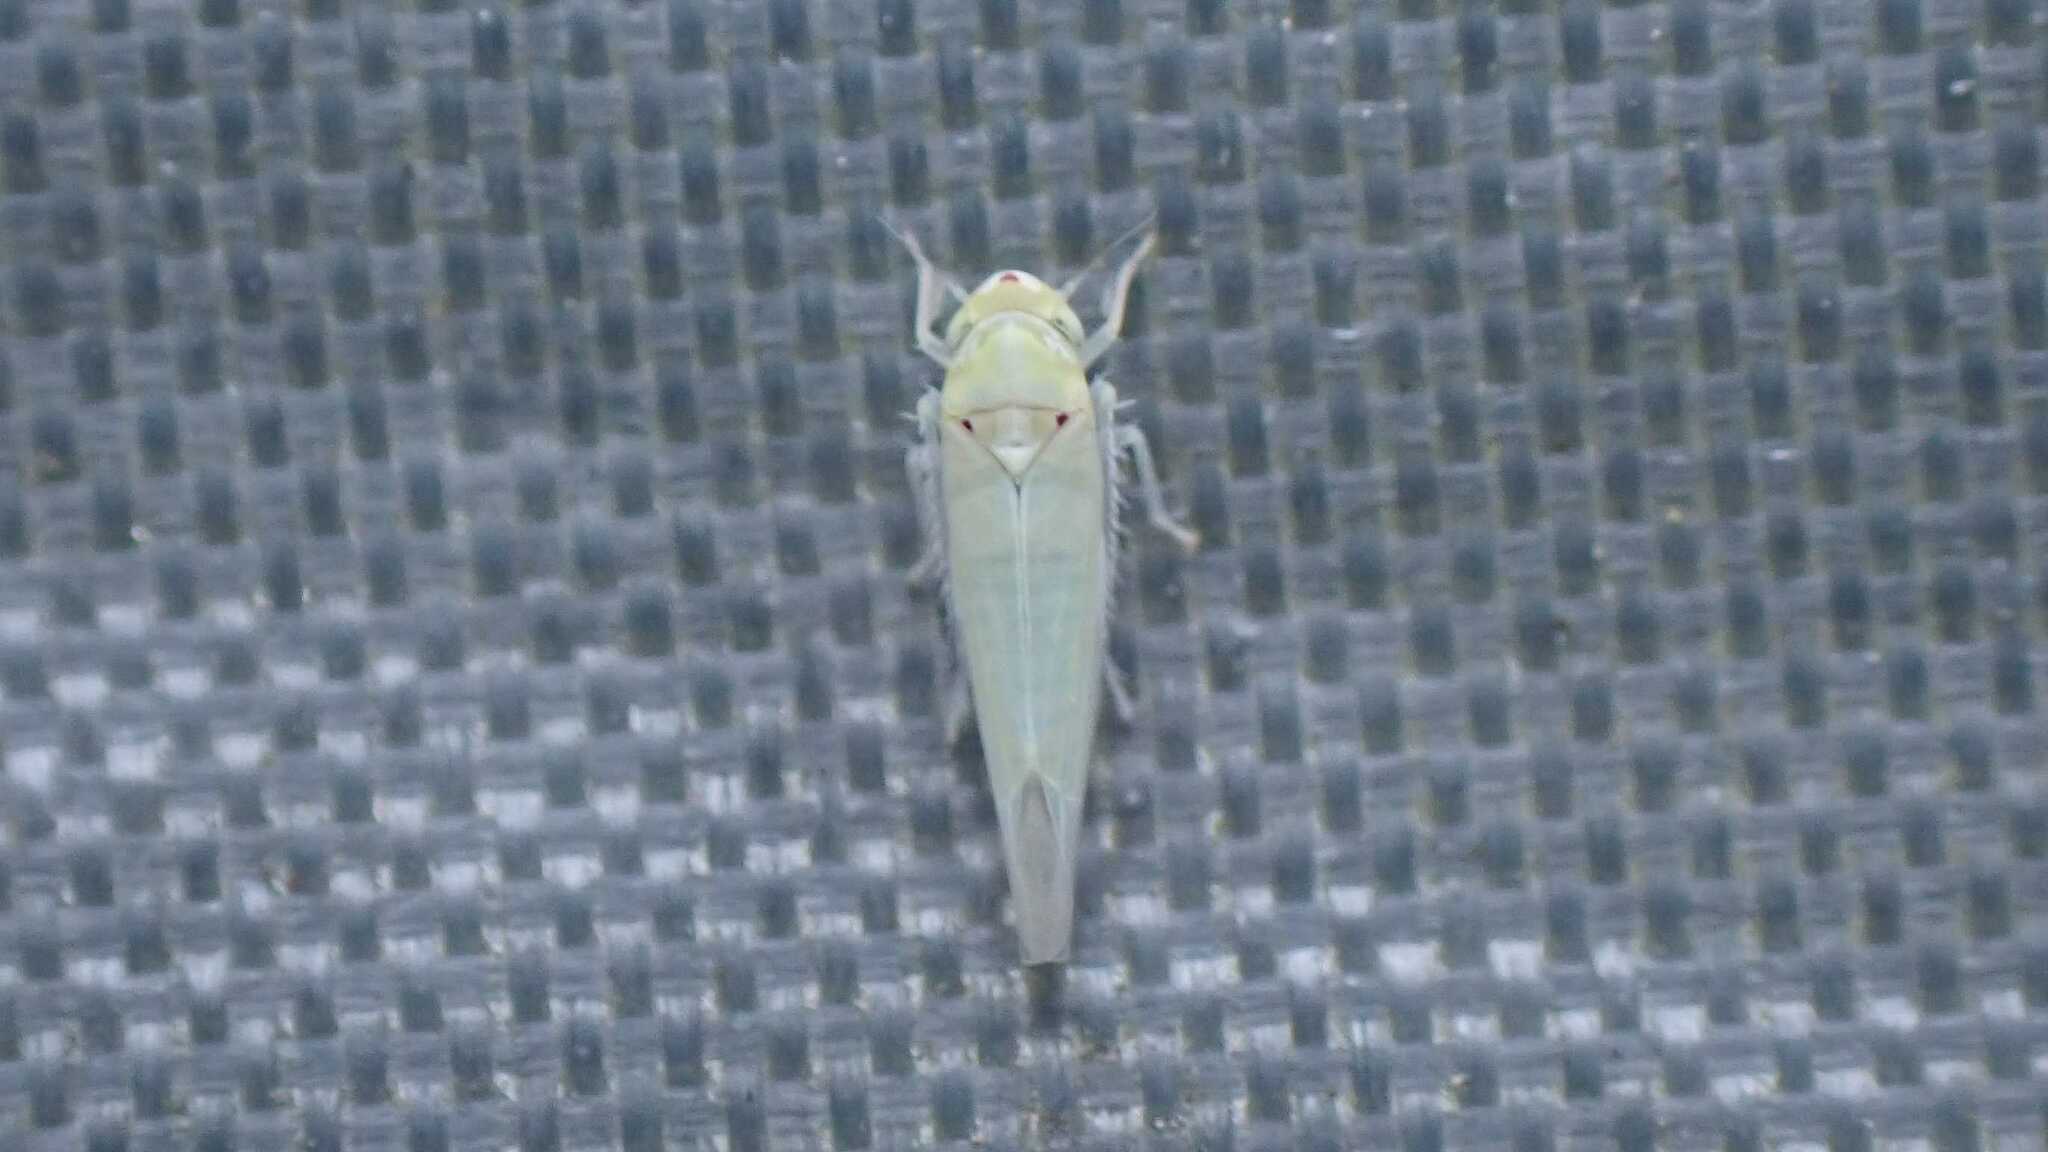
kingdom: Animalia
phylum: Arthropoda
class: Insecta
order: Hemiptera
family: Cicadellidae
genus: Zygina
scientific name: Zygina nivea
